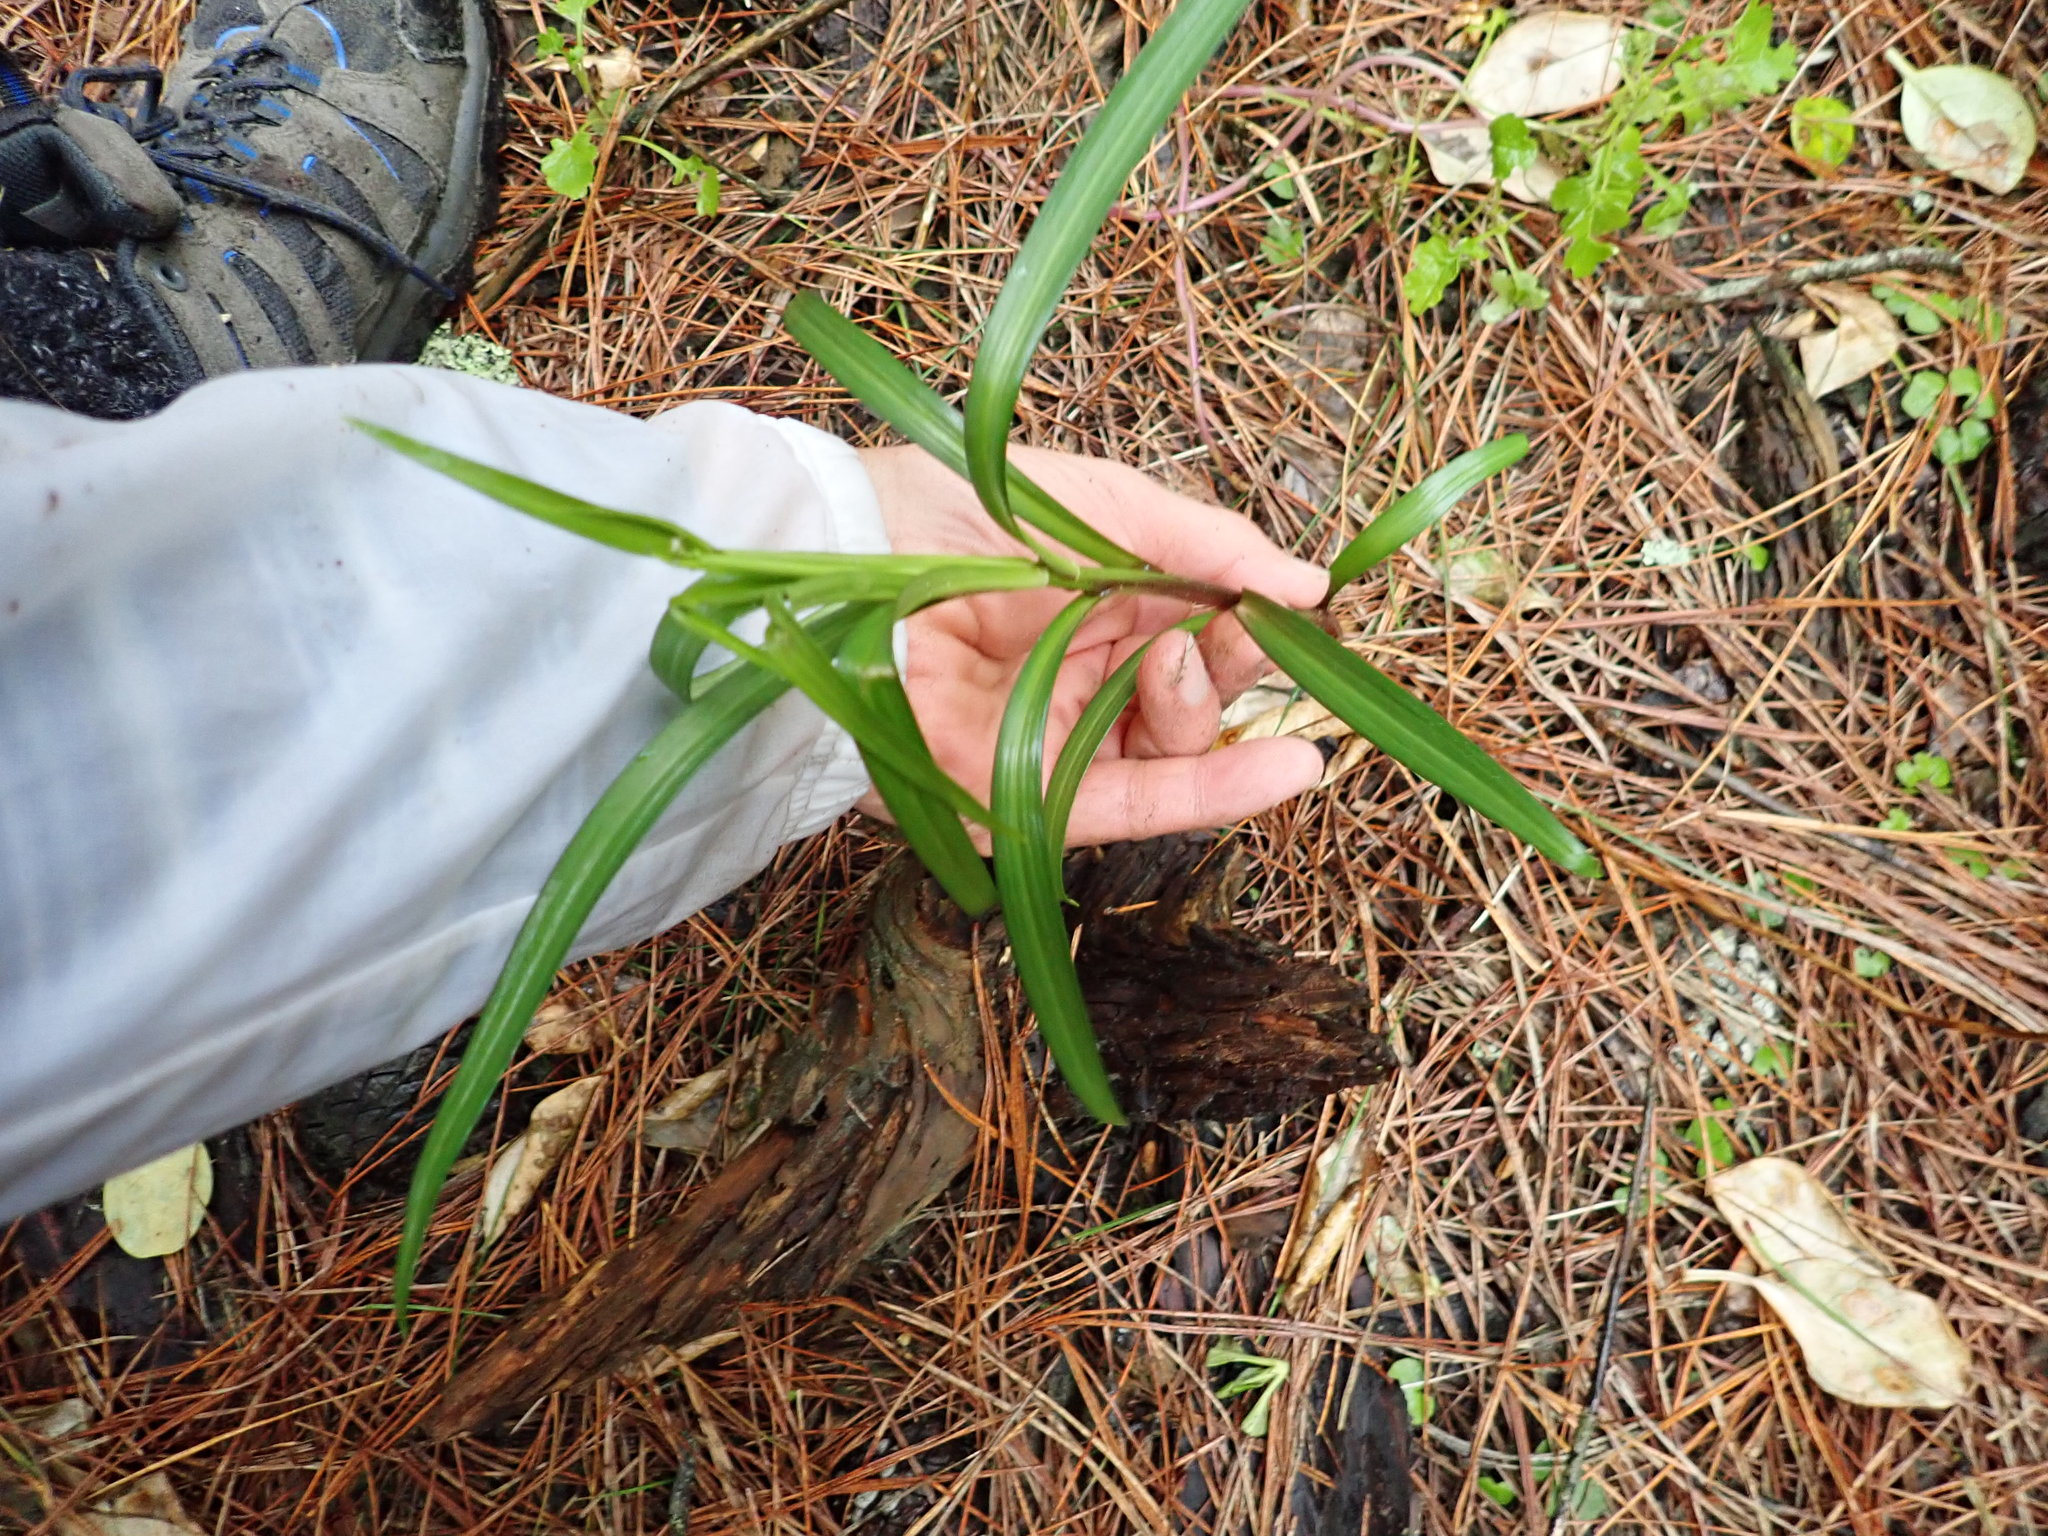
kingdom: Plantae
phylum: Tracheophyta
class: Liliopsida
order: Liliales
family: Liliaceae
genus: Lilium
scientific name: Lilium formosanum
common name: Formosa lily
